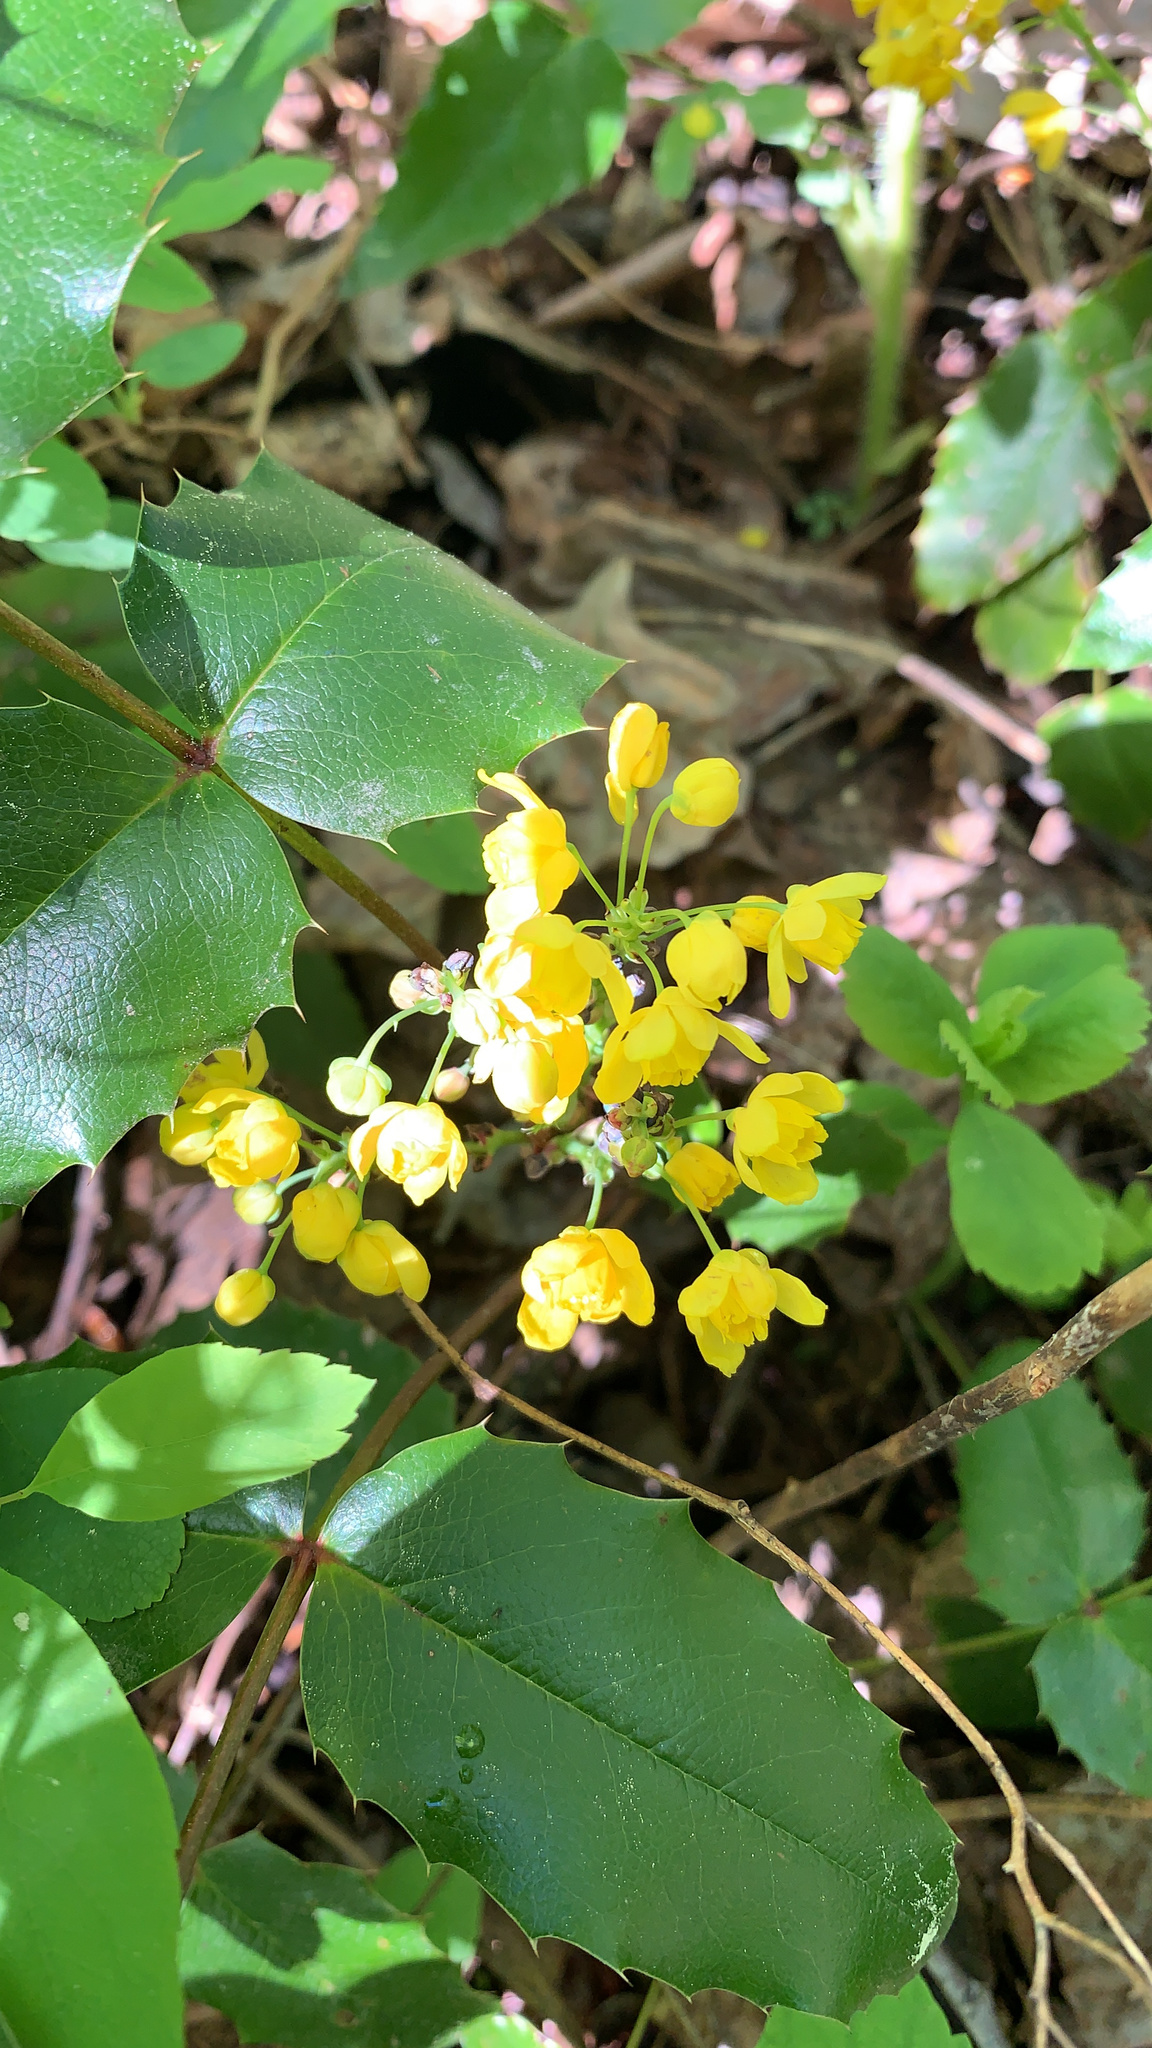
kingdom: Plantae
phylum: Tracheophyta
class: Magnoliopsida
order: Ranunculales
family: Berberidaceae
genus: Mahonia
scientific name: Mahonia aquifolium
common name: Oregon-grape
